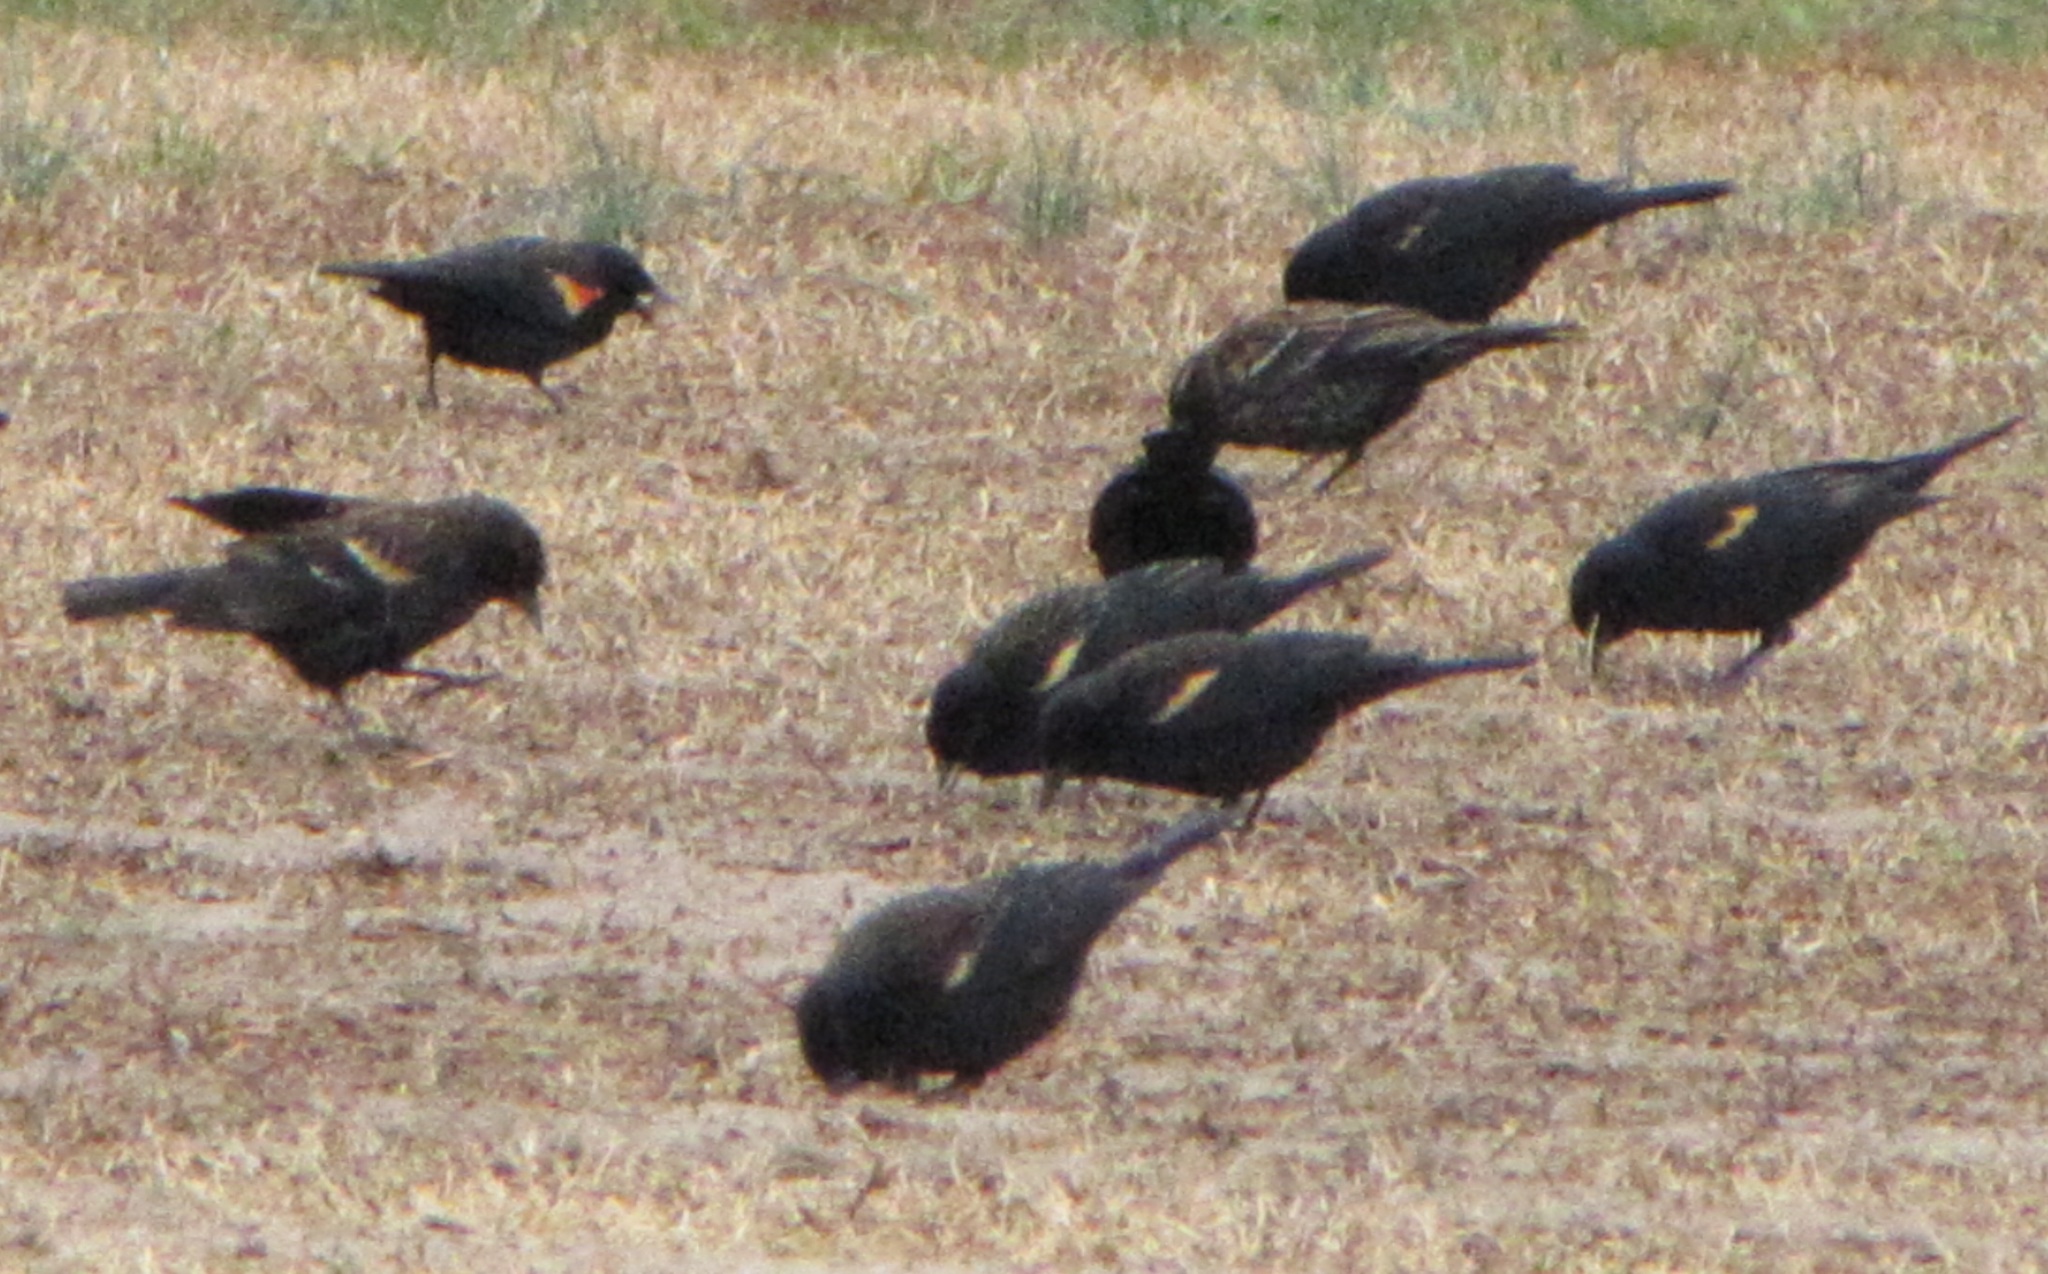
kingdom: Animalia
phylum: Chordata
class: Aves
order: Passeriformes
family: Icteridae
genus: Agelaius
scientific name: Agelaius phoeniceus
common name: Red-winged blackbird
